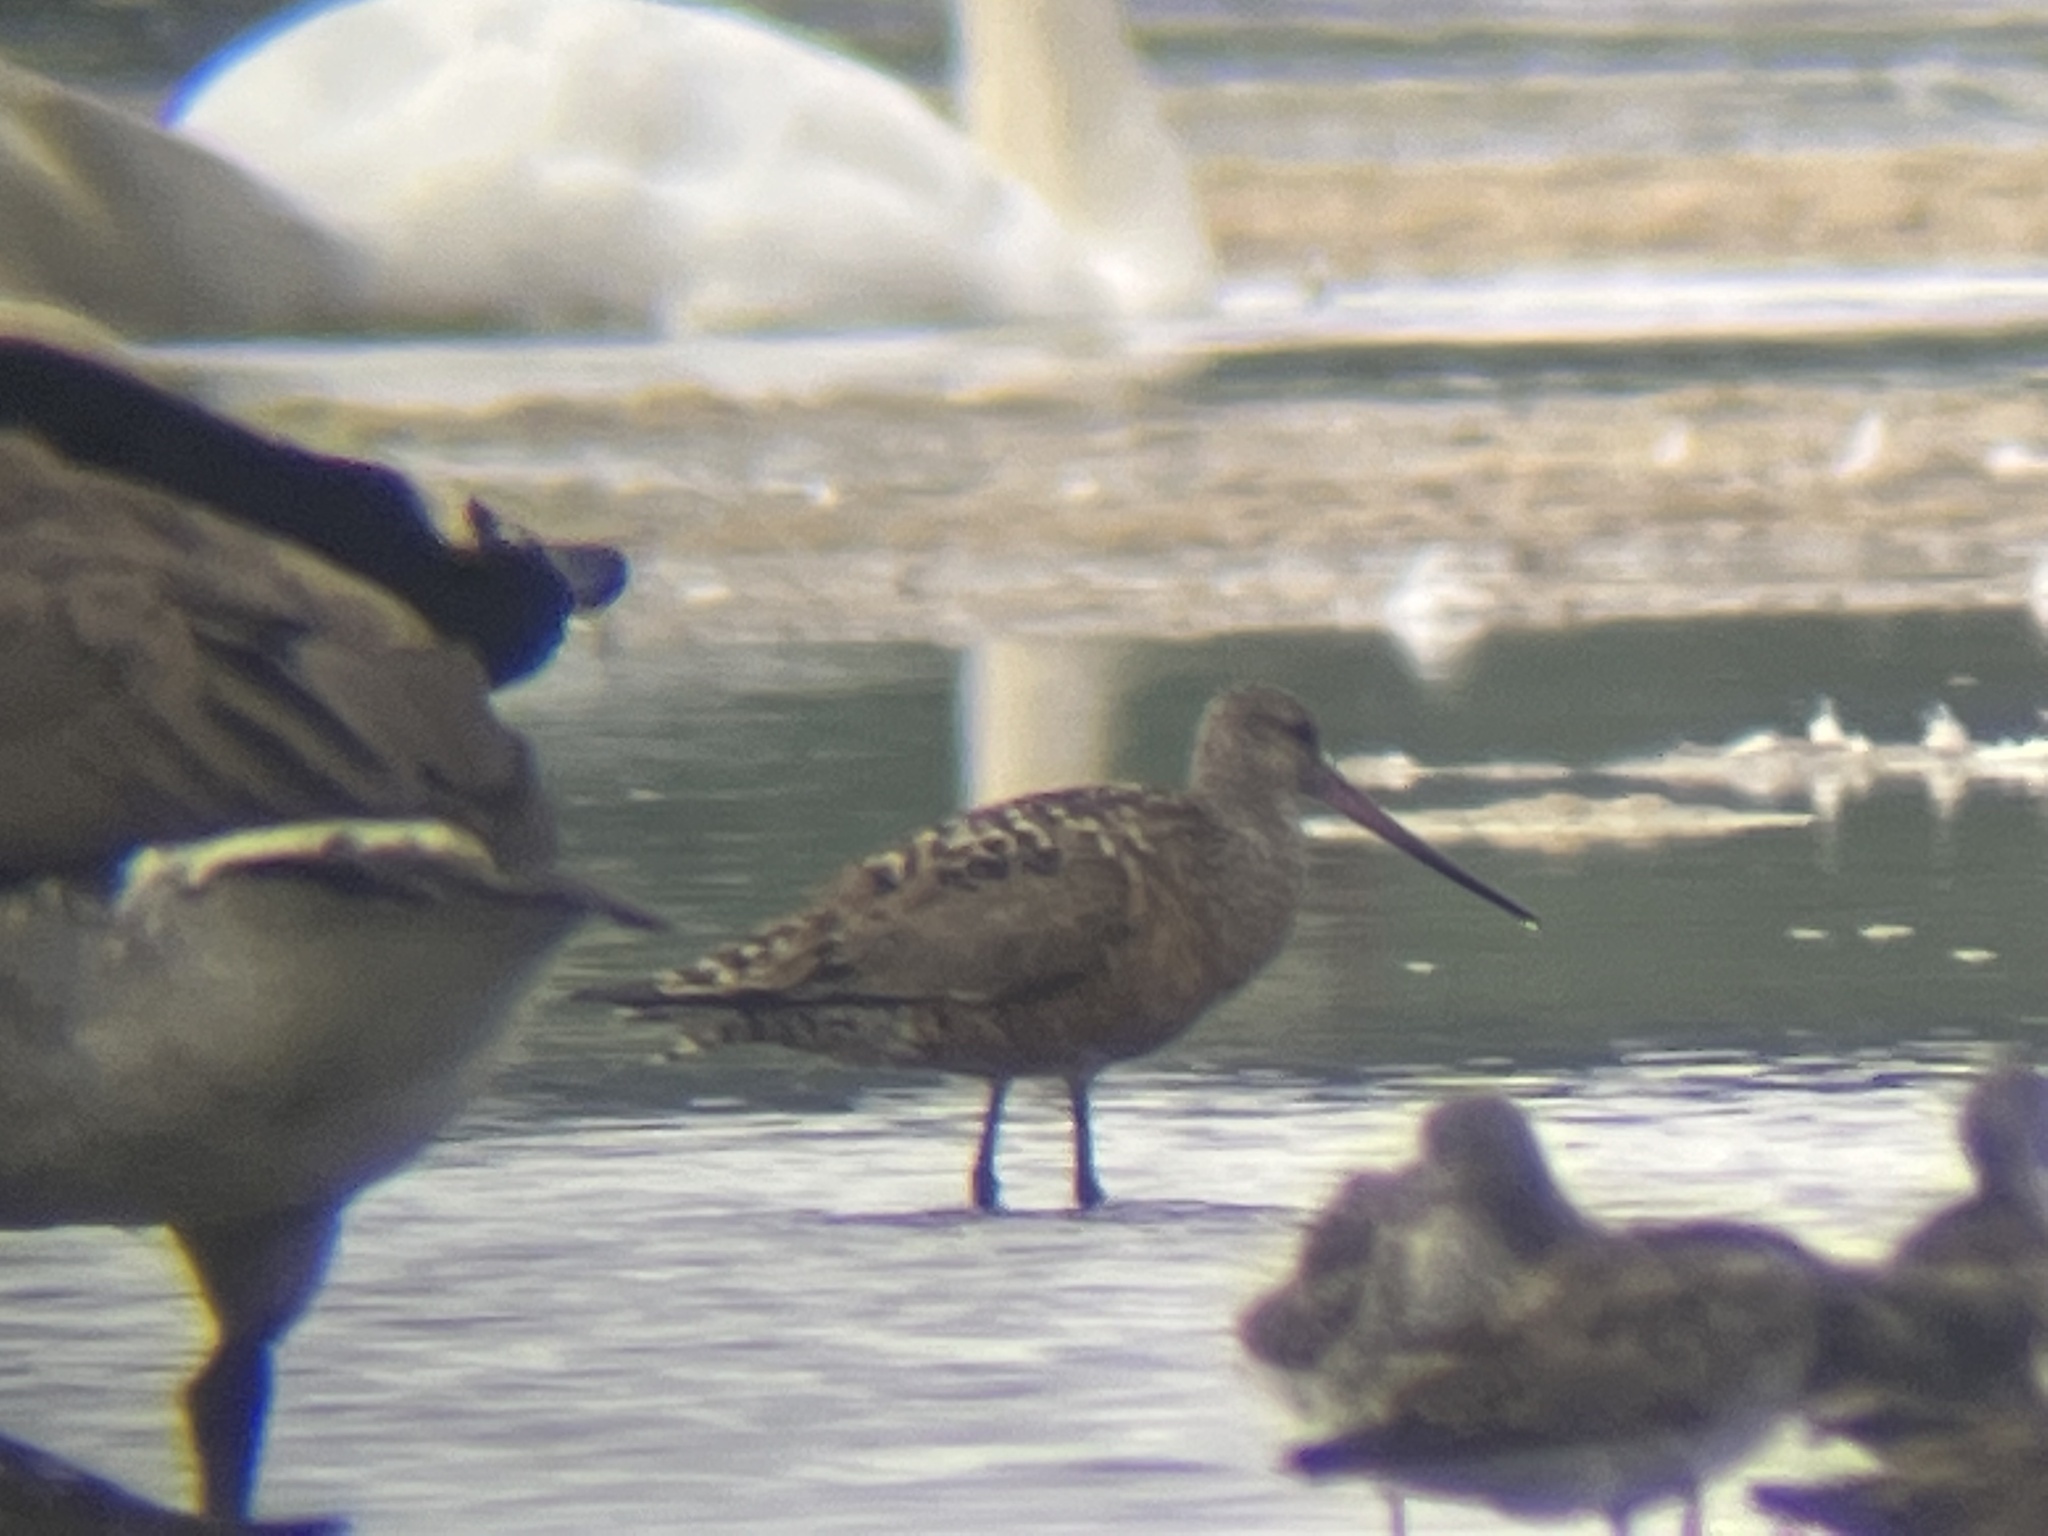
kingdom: Animalia
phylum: Chordata
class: Aves
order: Charadriiformes
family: Scolopacidae
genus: Limosa
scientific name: Limosa haemastica
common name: Hudsonian godwit
